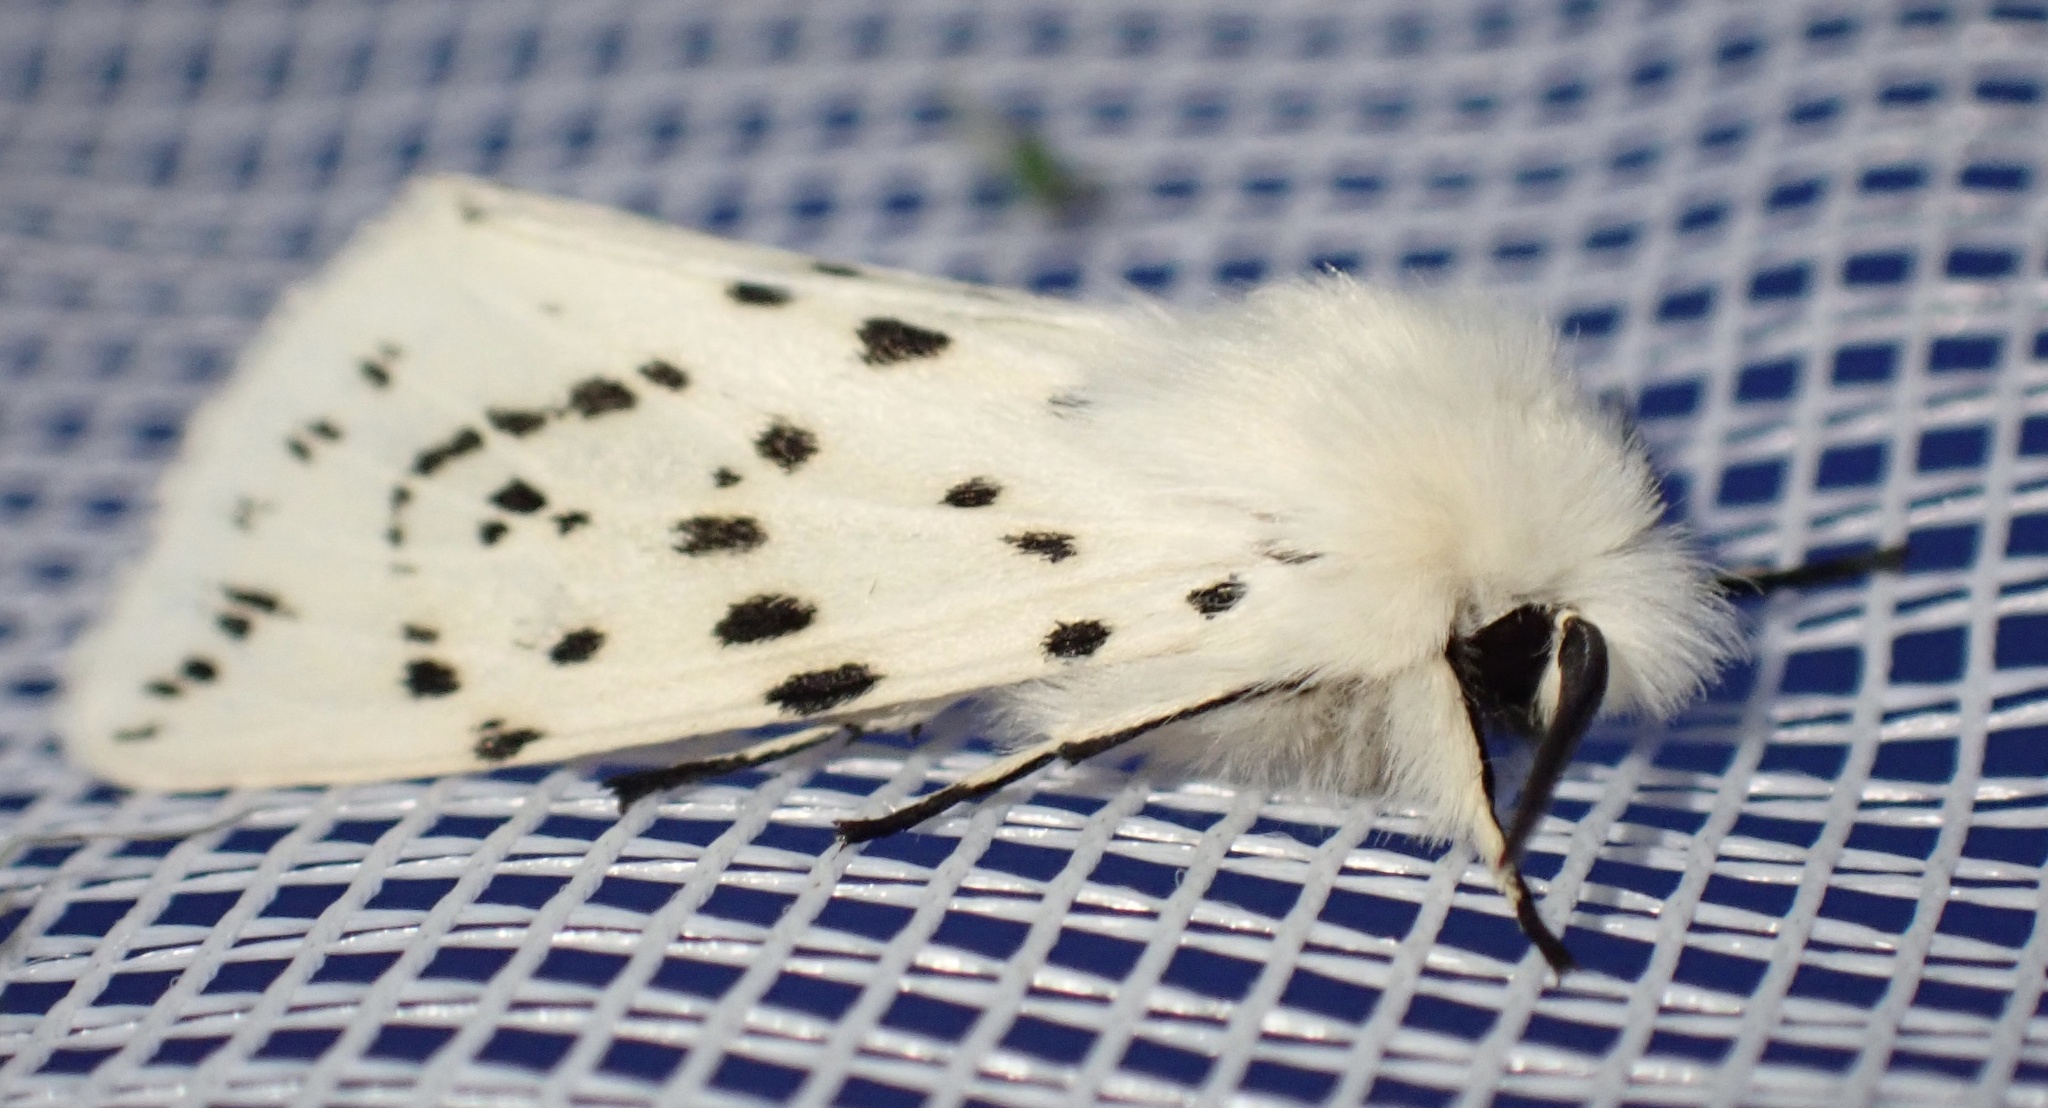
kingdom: Animalia
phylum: Arthropoda
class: Insecta
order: Lepidoptera
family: Erebidae
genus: Spilosoma
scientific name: Spilosoma lubricipeda
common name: White ermine
